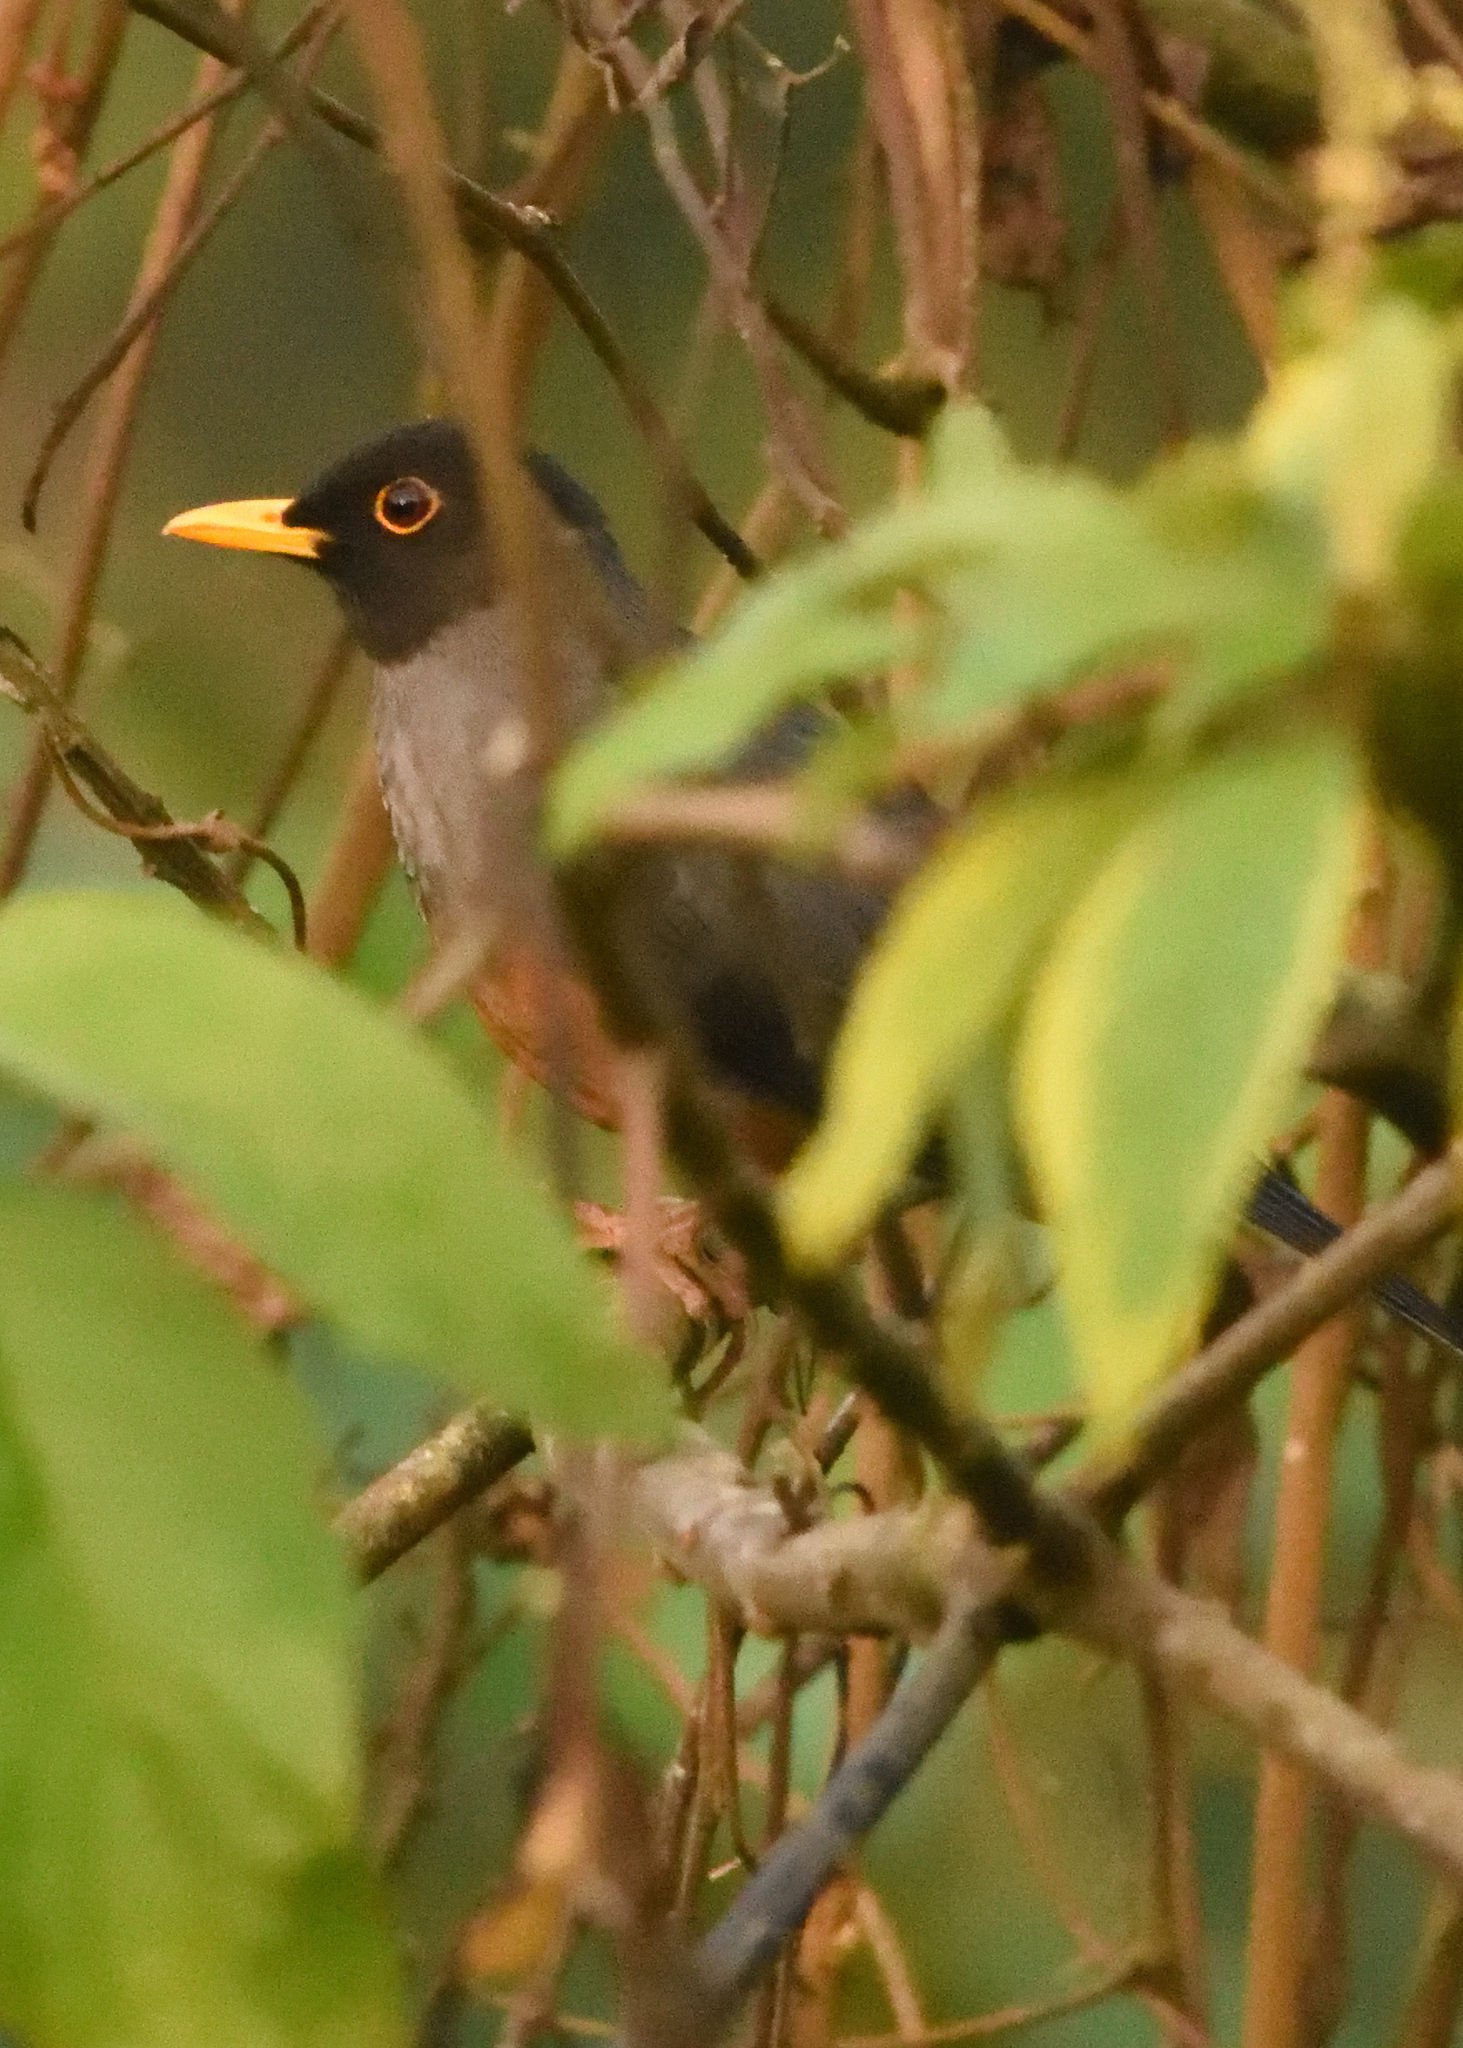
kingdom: Animalia
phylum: Chordata
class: Aves
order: Passeriformes
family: Turdidae
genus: Turdus
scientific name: Turdus fulviventris
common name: Chestnut-bellied thrush
